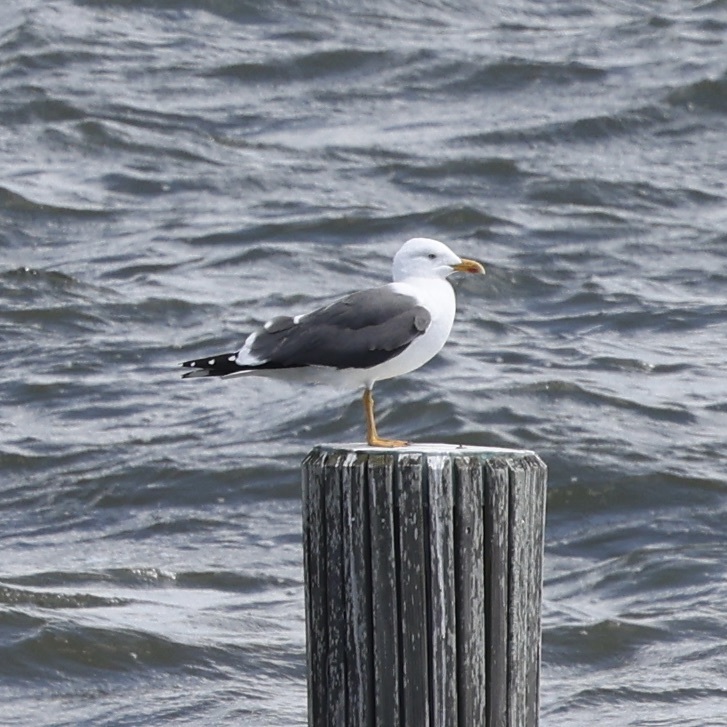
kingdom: Animalia
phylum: Chordata
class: Aves
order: Charadriiformes
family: Laridae
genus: Larus
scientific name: Larus fuscus
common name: Lesser black-backed gull
